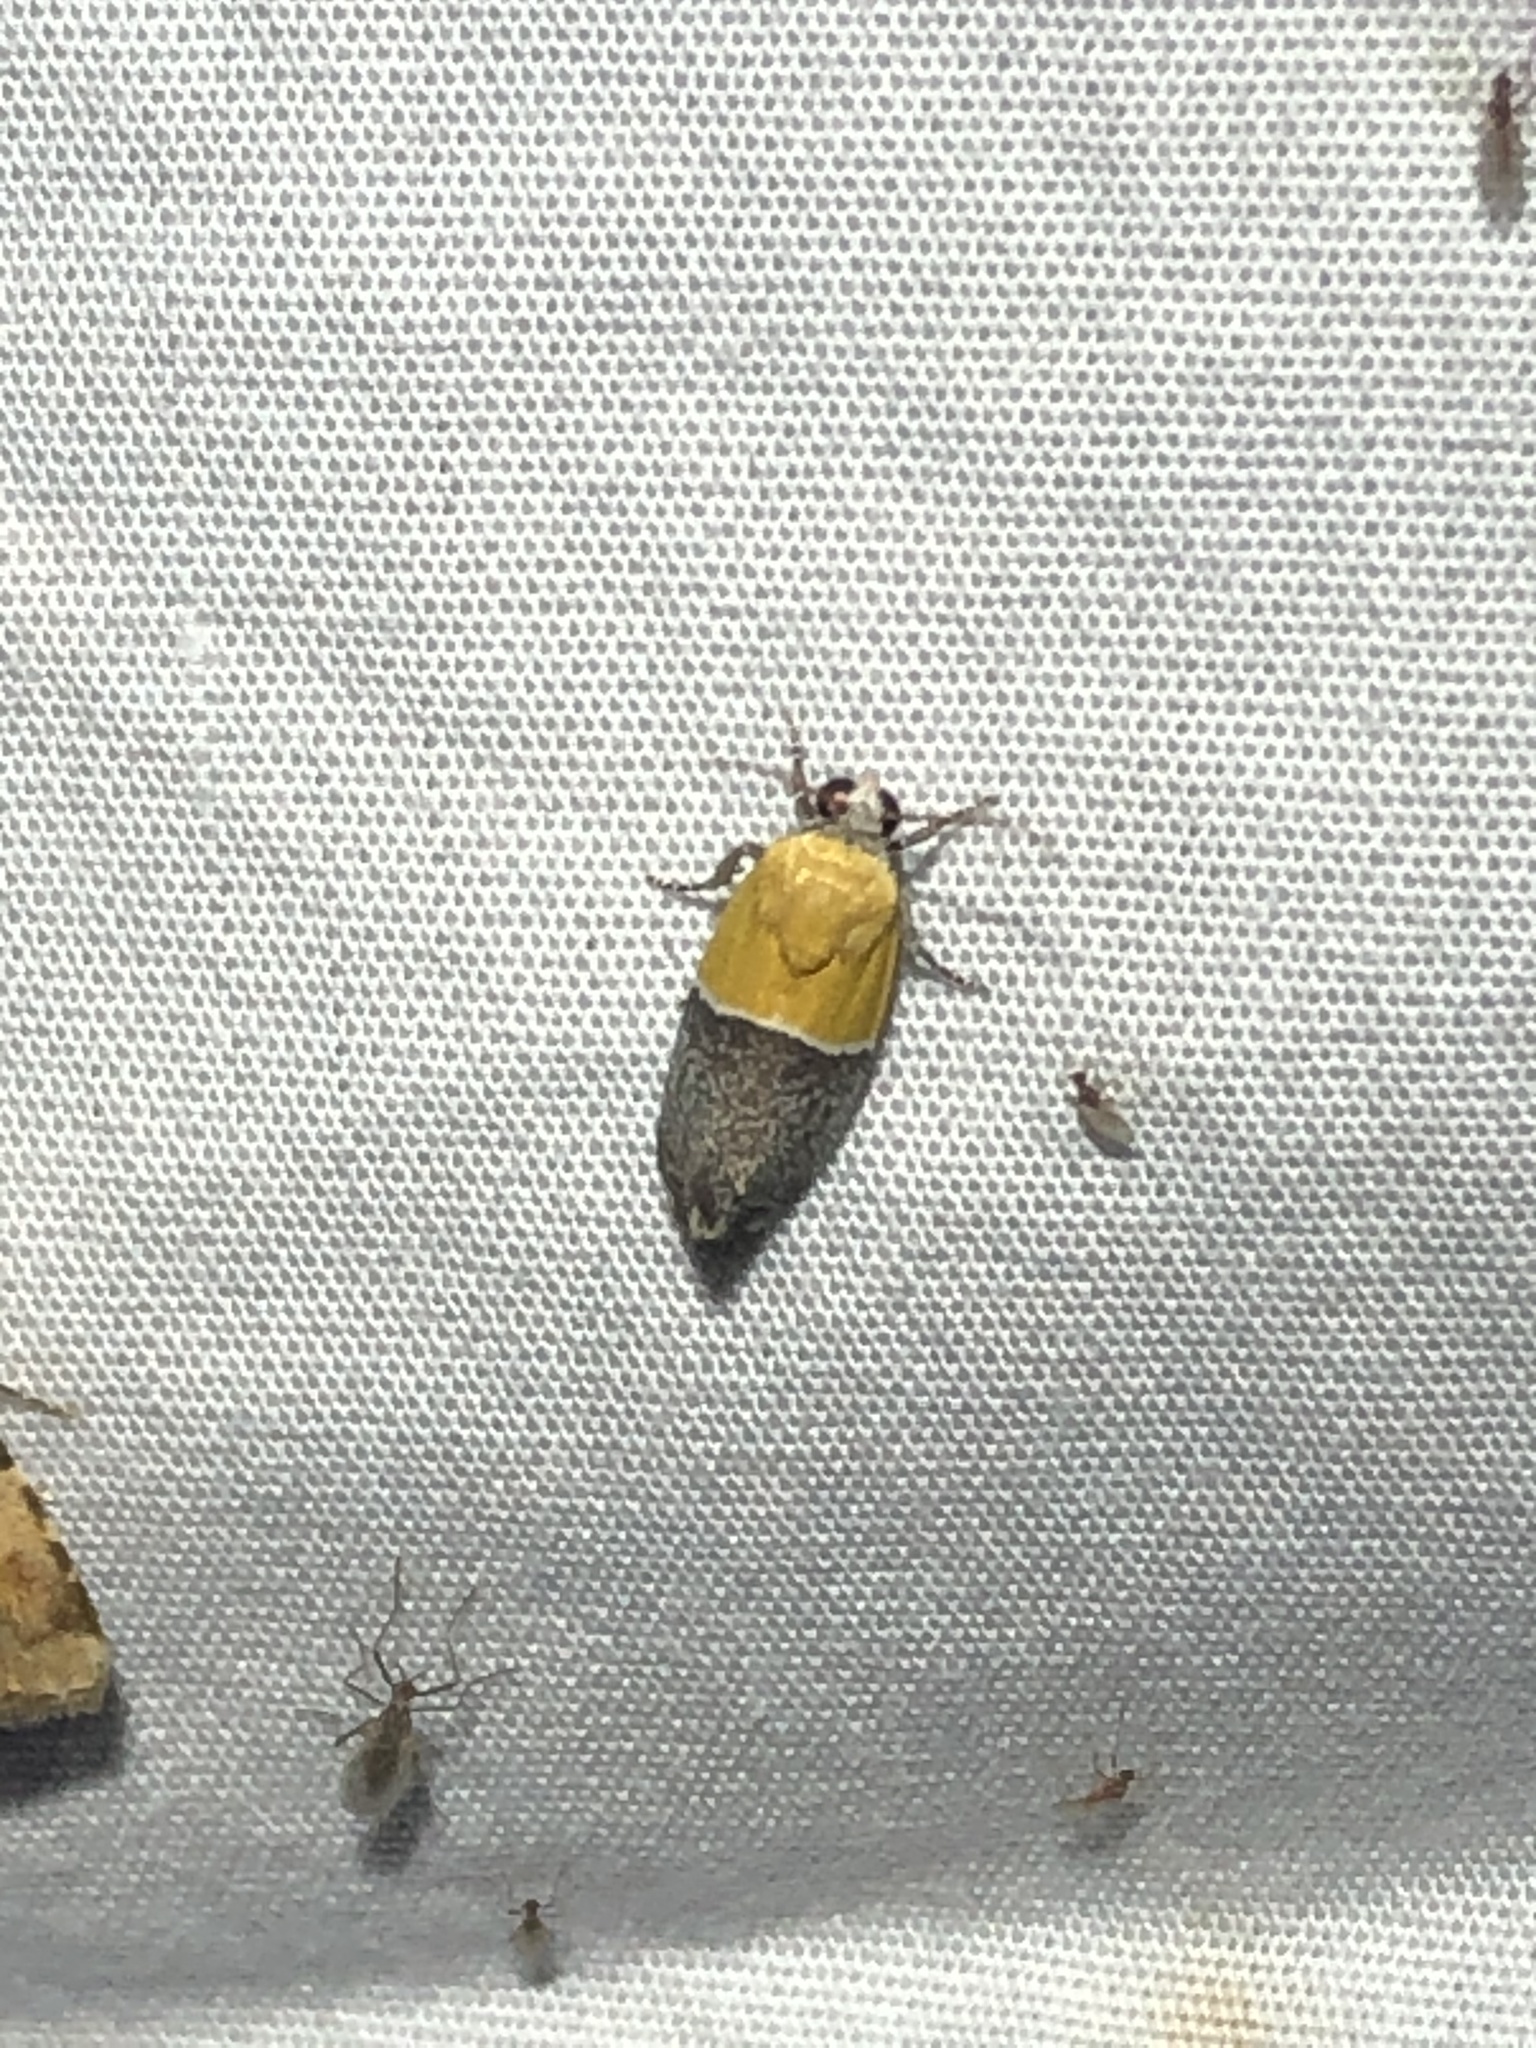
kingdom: Animalia
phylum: Arthropoda
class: Insecta
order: Lepidoptera
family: Noctuidae
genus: Acontia
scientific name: Acontia clausula
